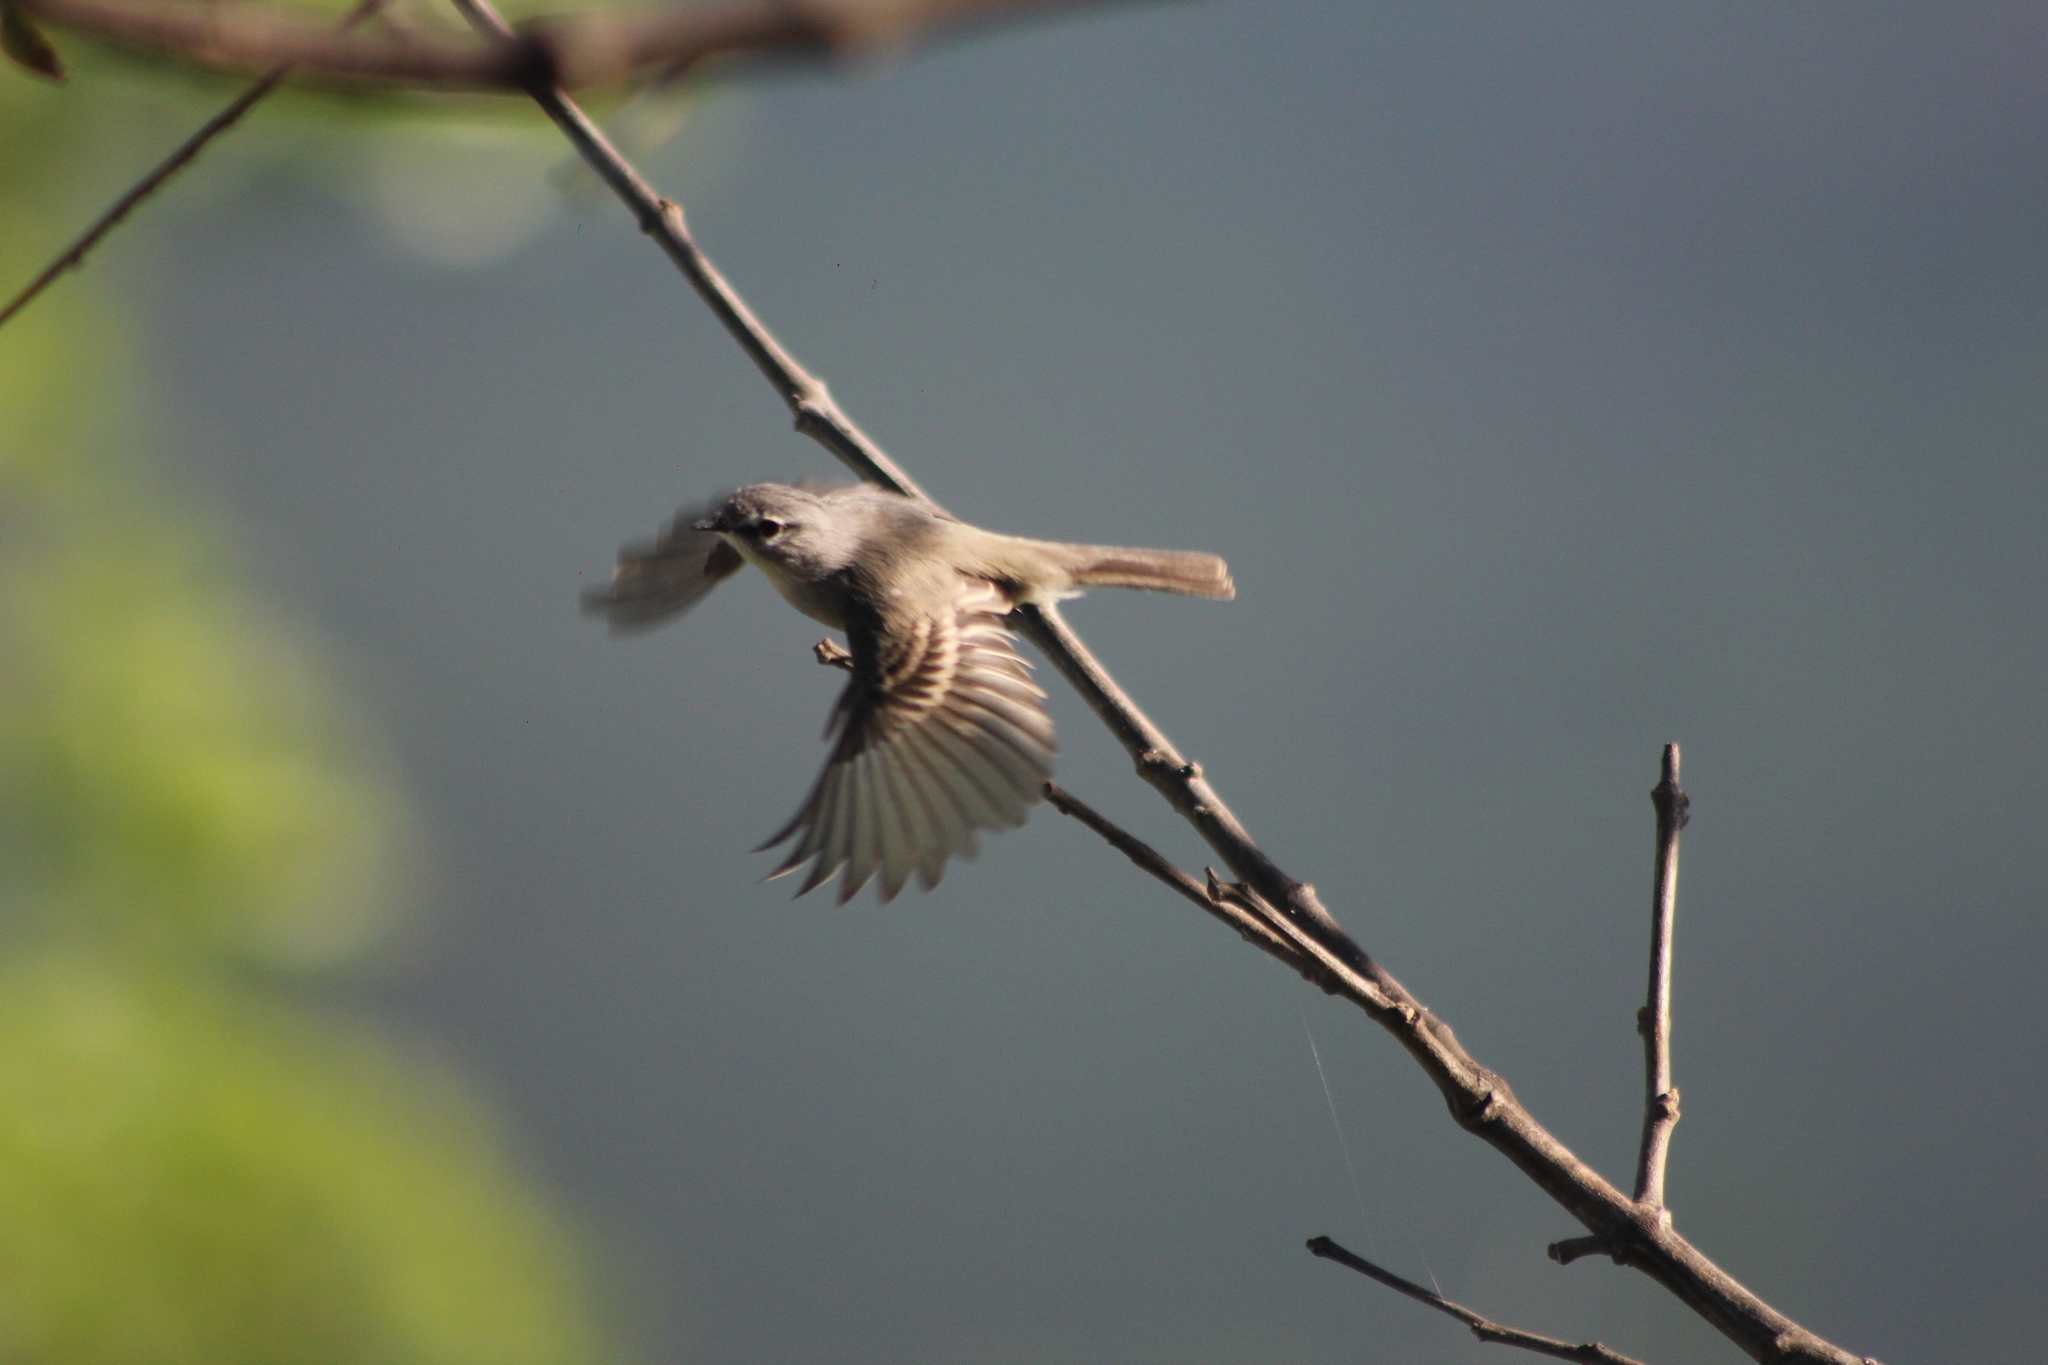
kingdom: Animalia
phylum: Chordata
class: Aves
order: Passeriformes
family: Tyrannidae
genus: Serpophaga
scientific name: Serpophaga subcristata
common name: White-crested tyrannulet
